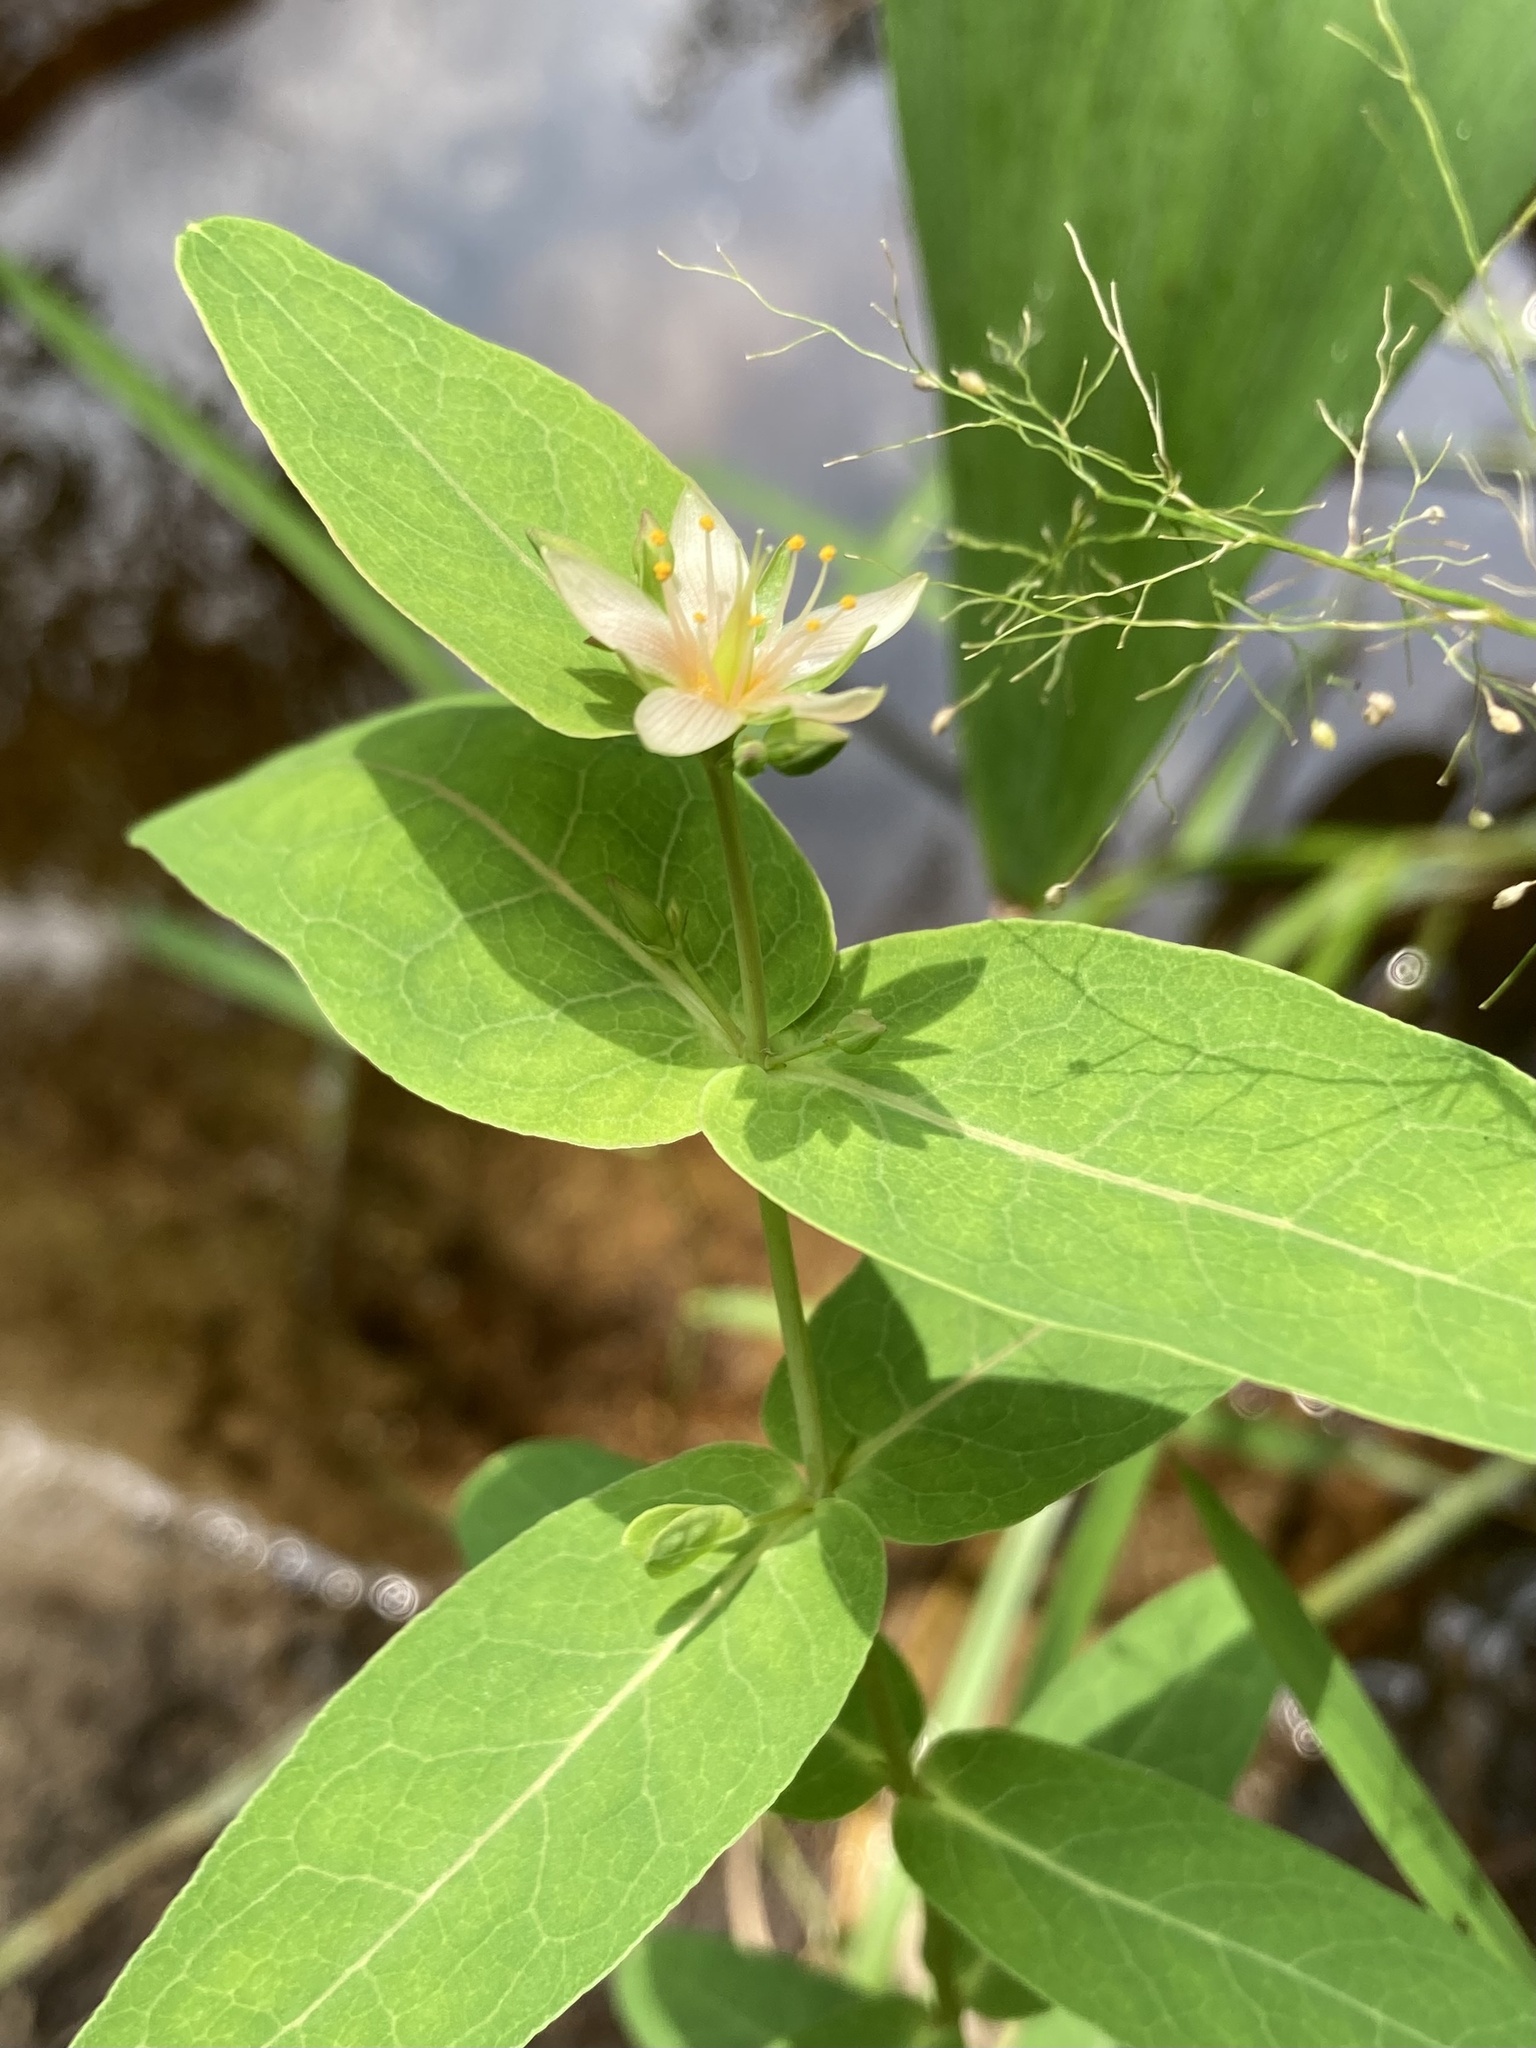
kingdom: Plantae
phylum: Tracheophyta
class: Magnoliopsida
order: Malpighiales
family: Hypericaceae
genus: Triadenum
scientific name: Triadenum virginicum
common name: Marsh st. john's-wort
